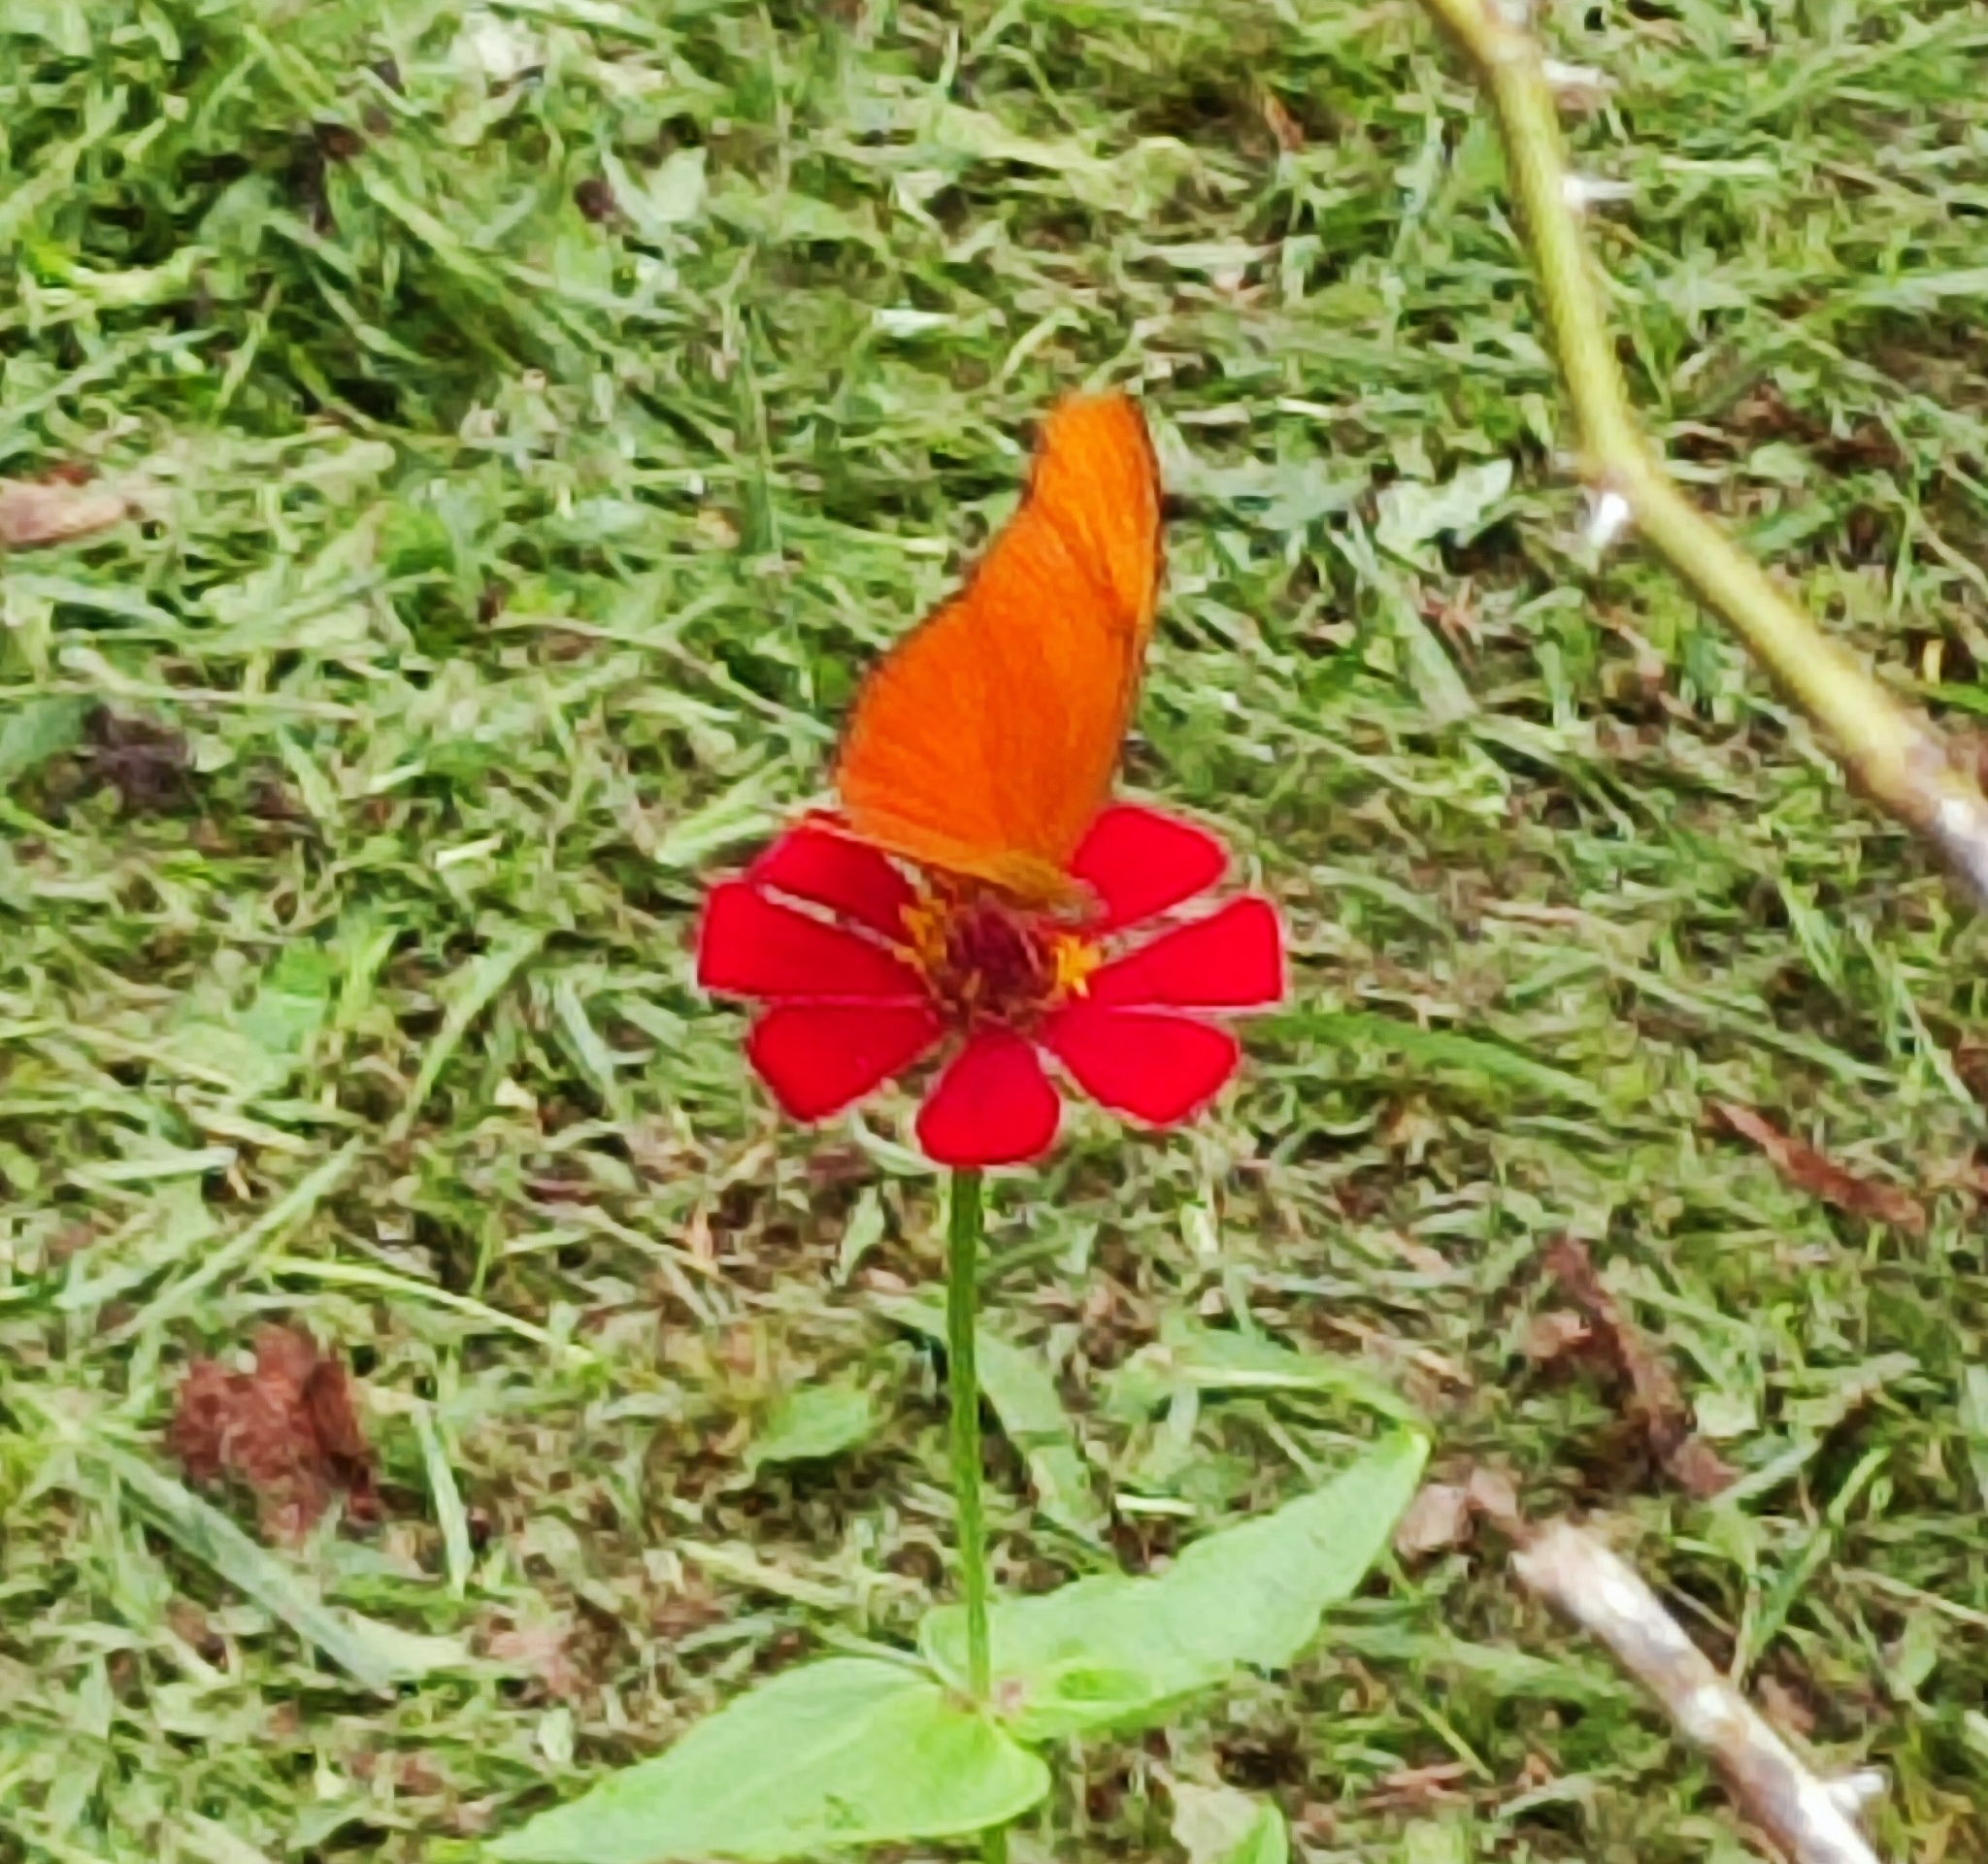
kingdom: Animalia
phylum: Arthropoda
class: Insecta
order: Lepidoptera
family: Nymphalidae
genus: Dryas
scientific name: Dryas iulia
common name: Flambeau
